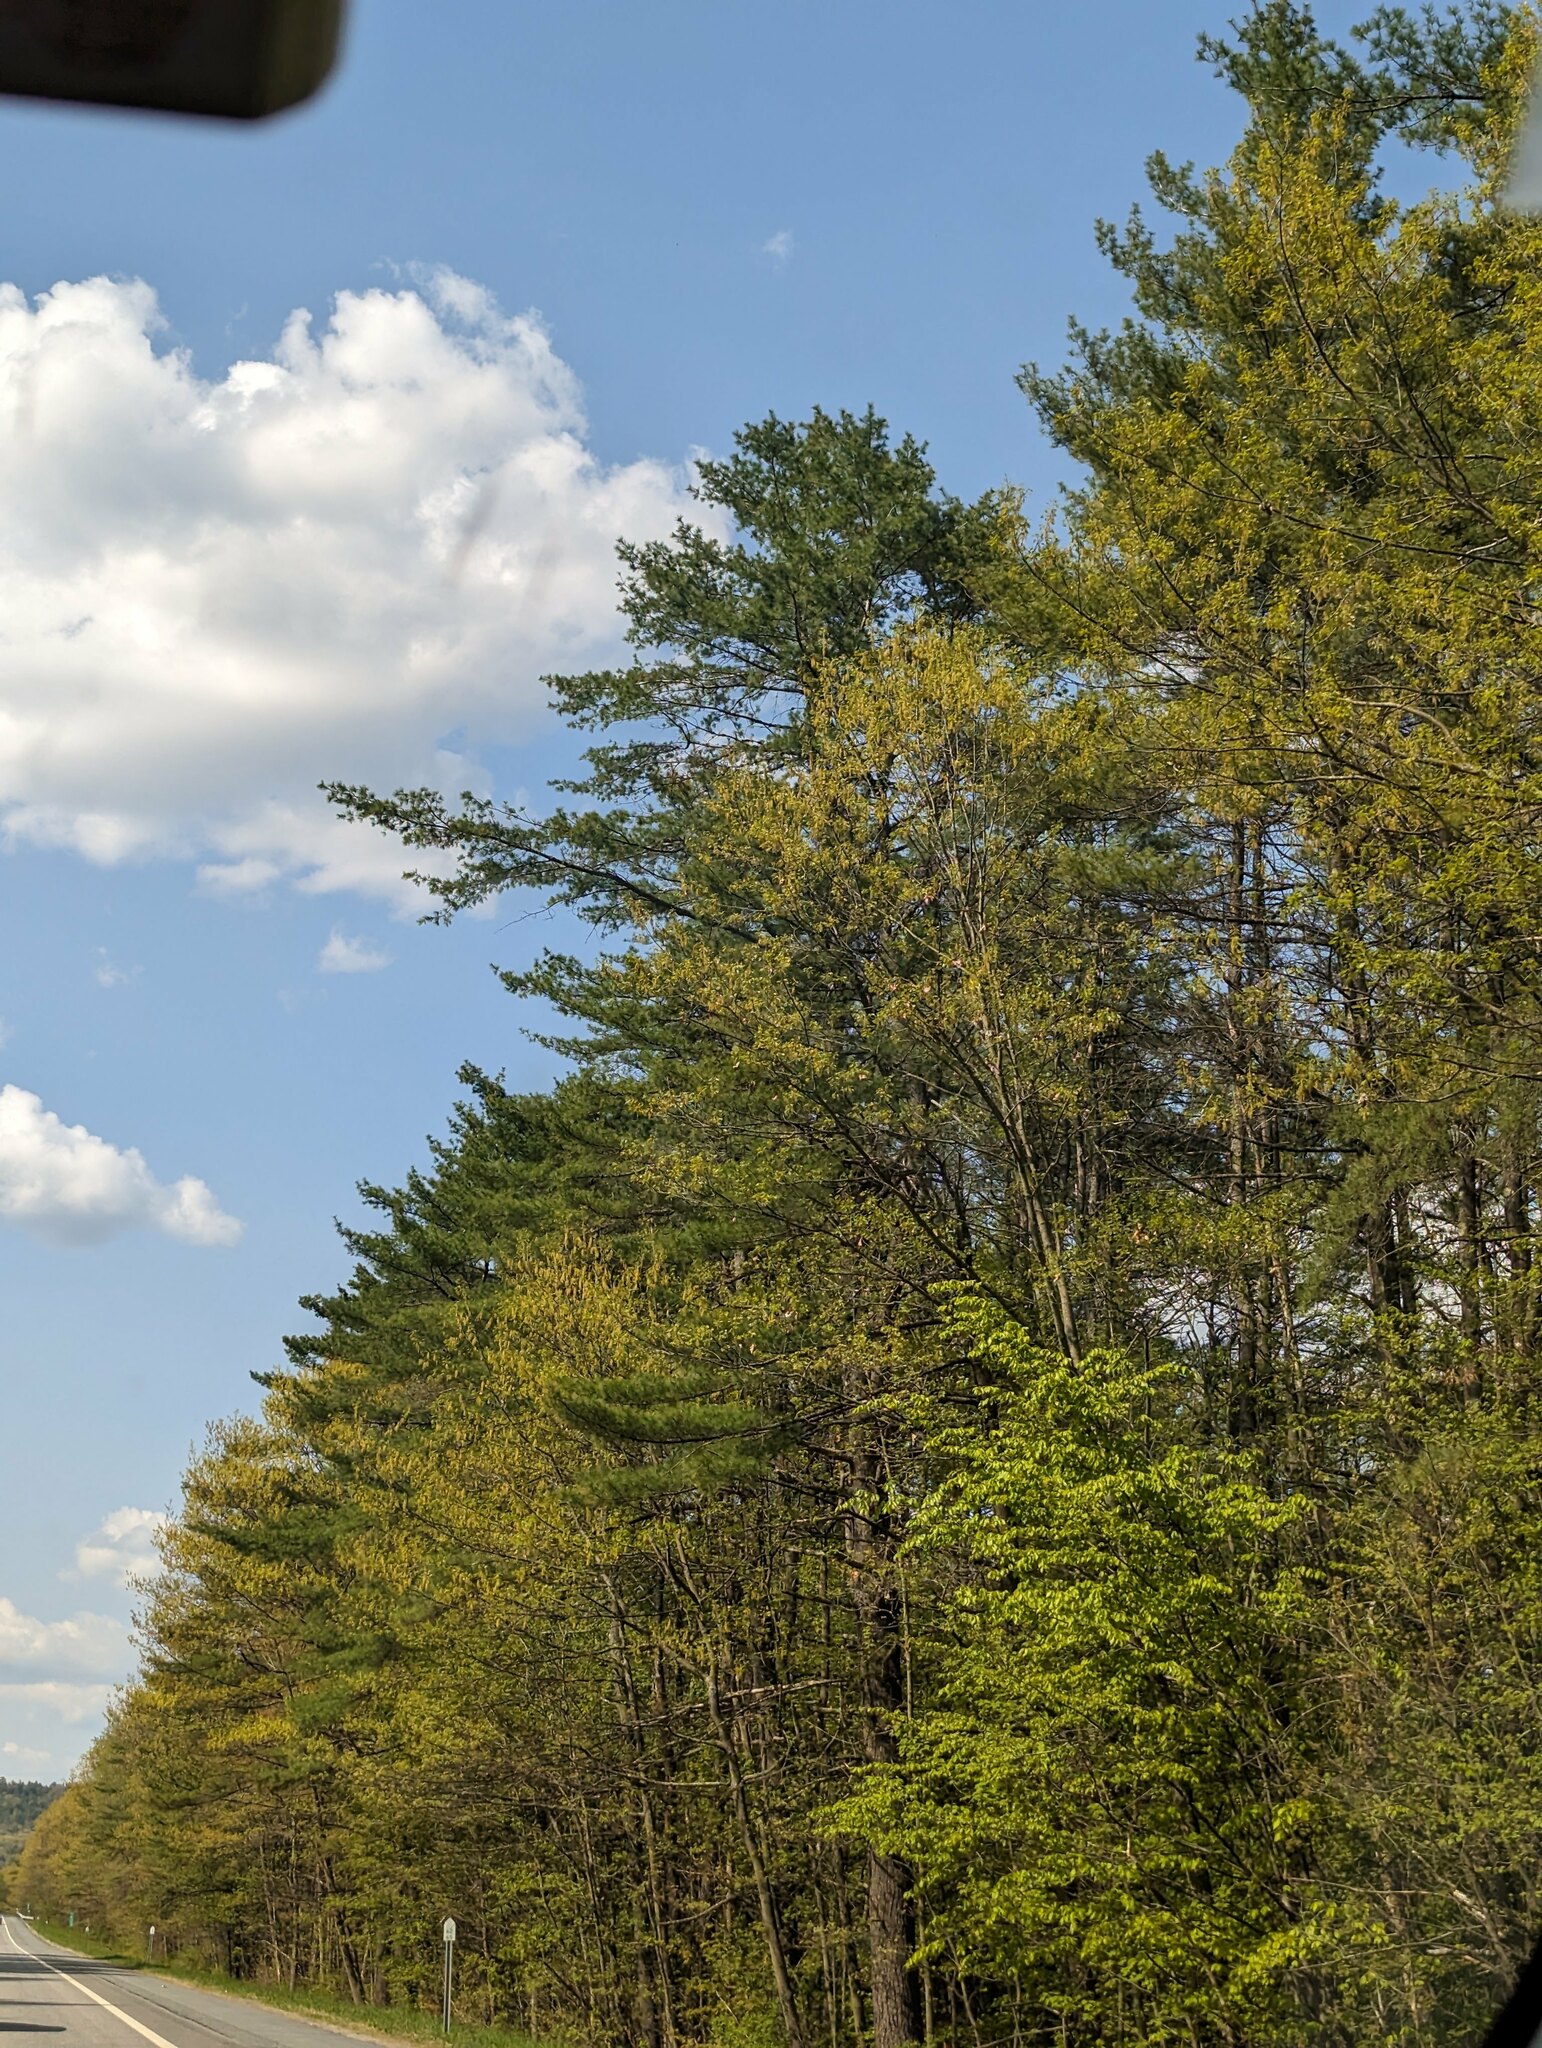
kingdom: Plantae
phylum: Tracheophyta
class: Pinopsida
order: Pinales
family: Pinaceae
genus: Pinus
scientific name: Pinus strobus
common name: Weymouth pine
